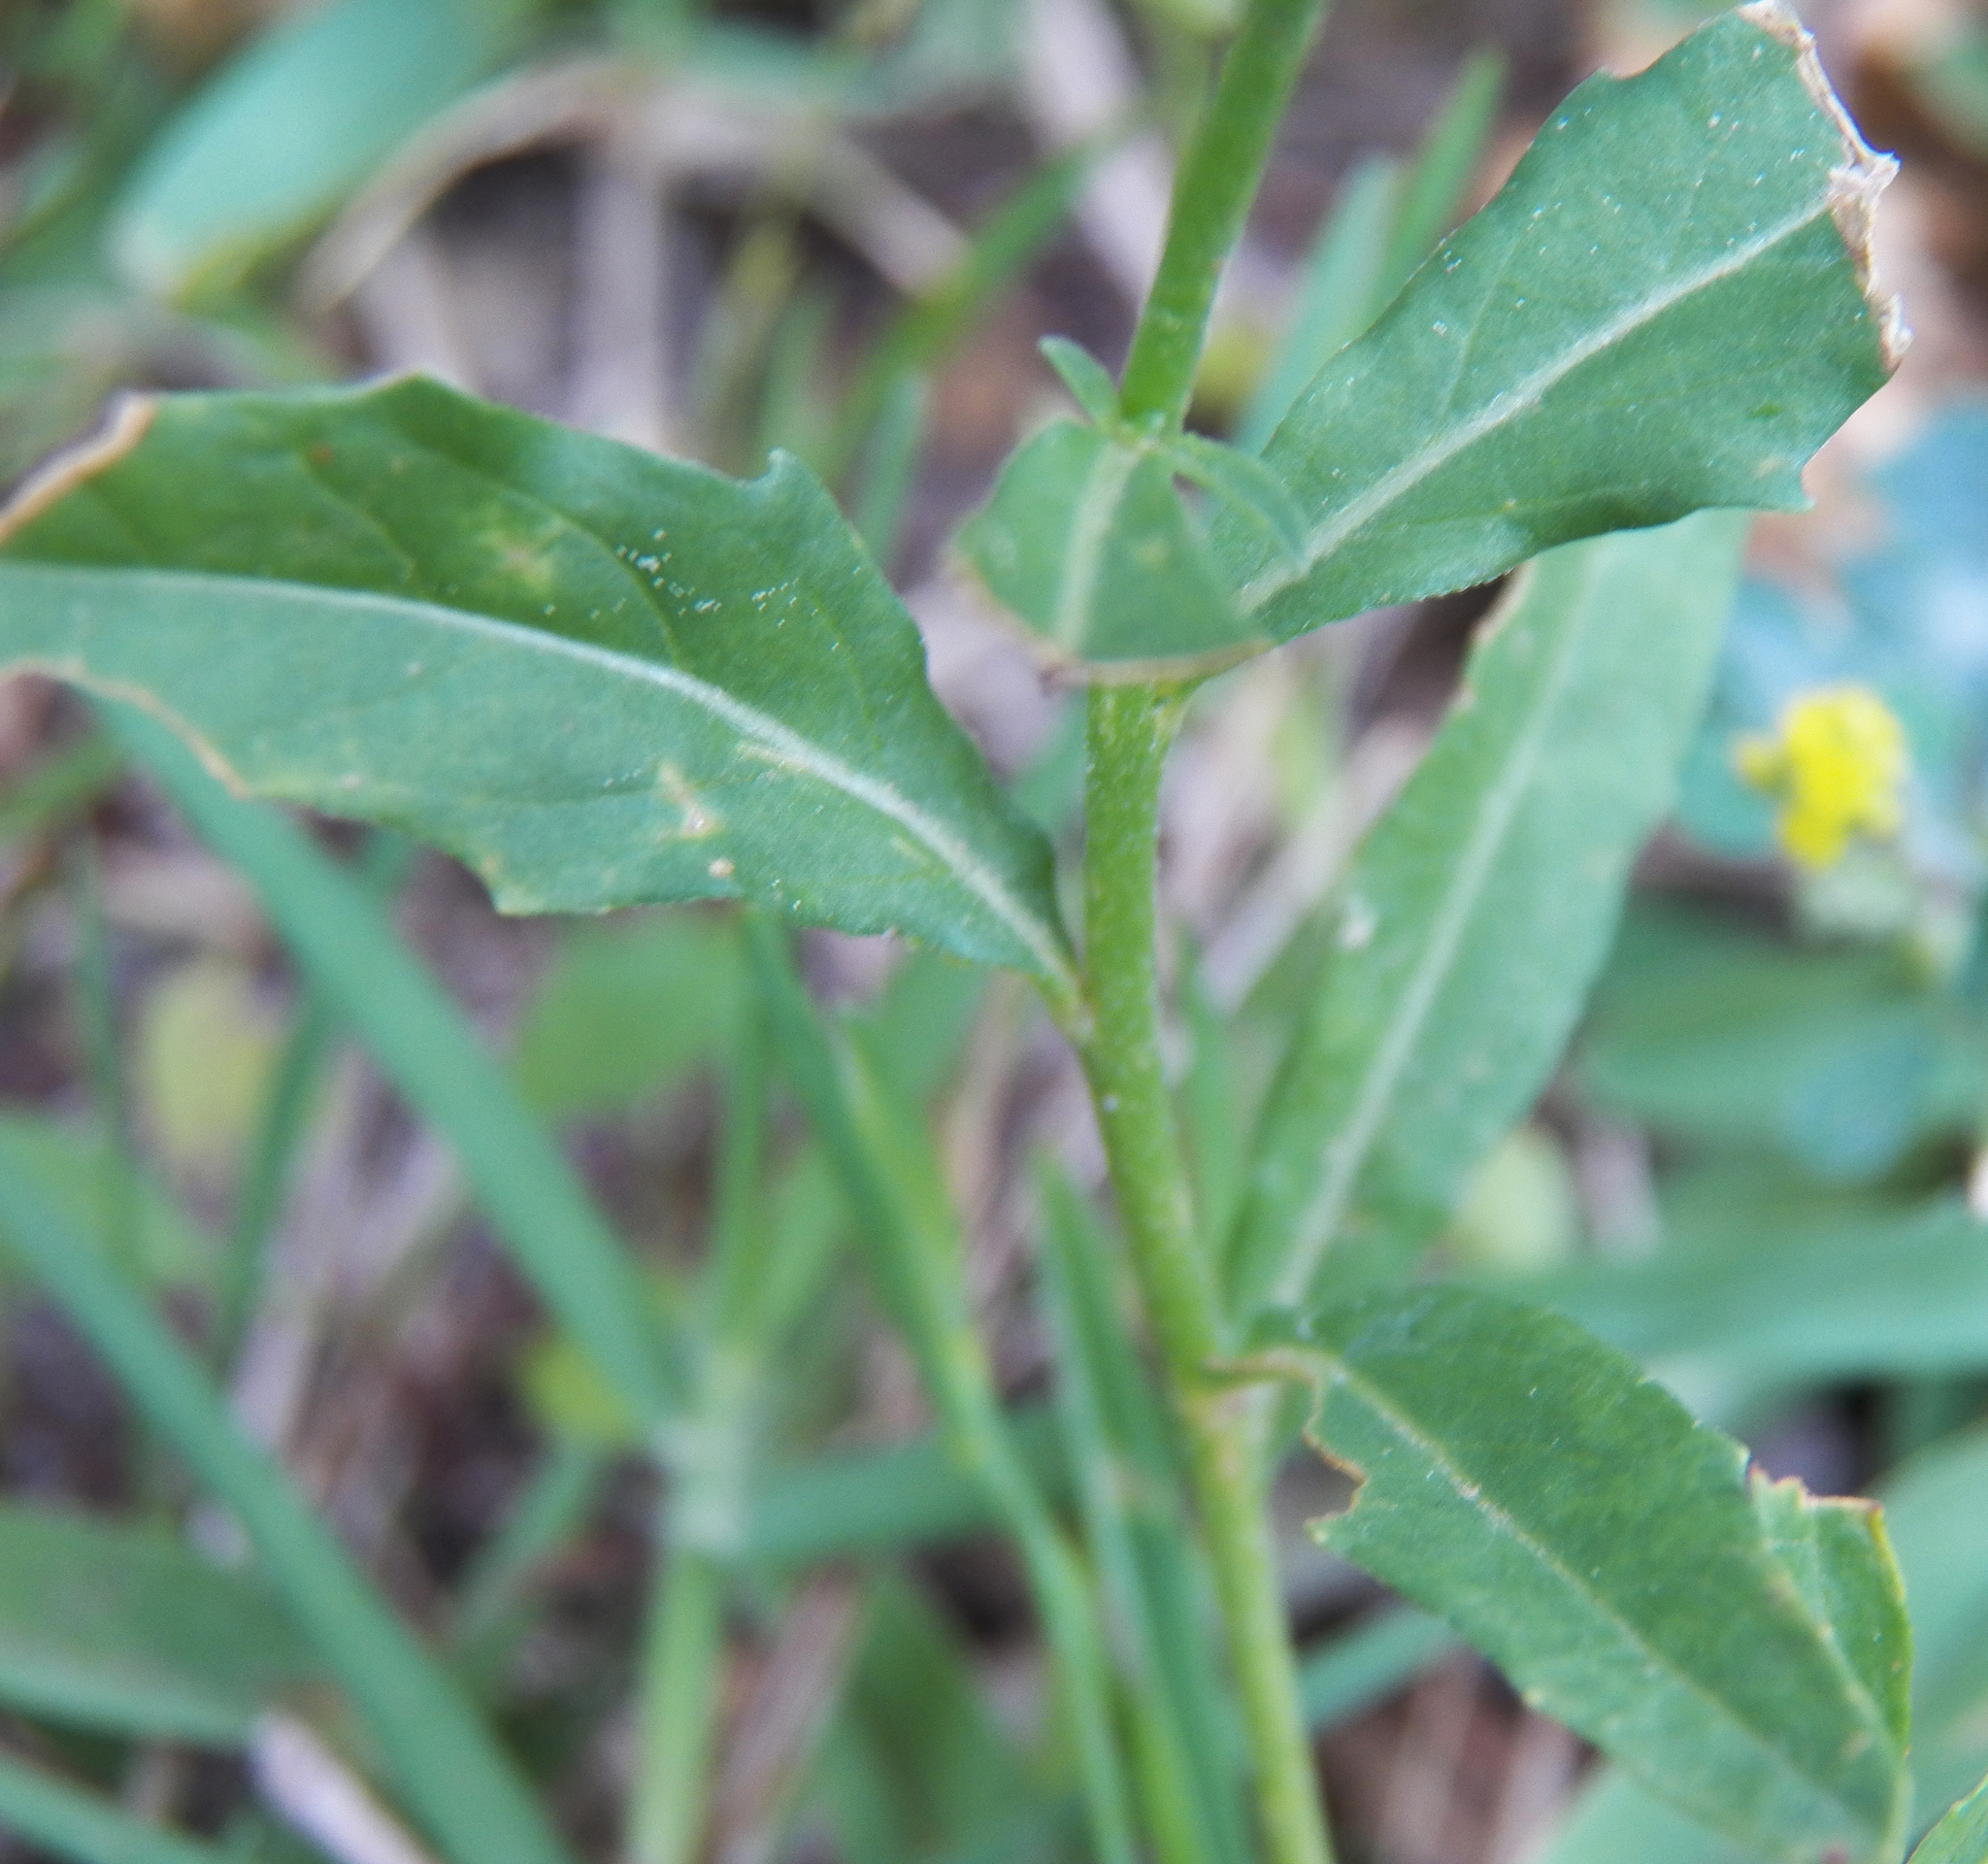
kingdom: Plantae
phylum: Tracheophyta
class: Magnoliopsida
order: Myrtales
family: Onagraceae
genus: Oenothera
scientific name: Oenothera speciosa
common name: White evening-primrose
